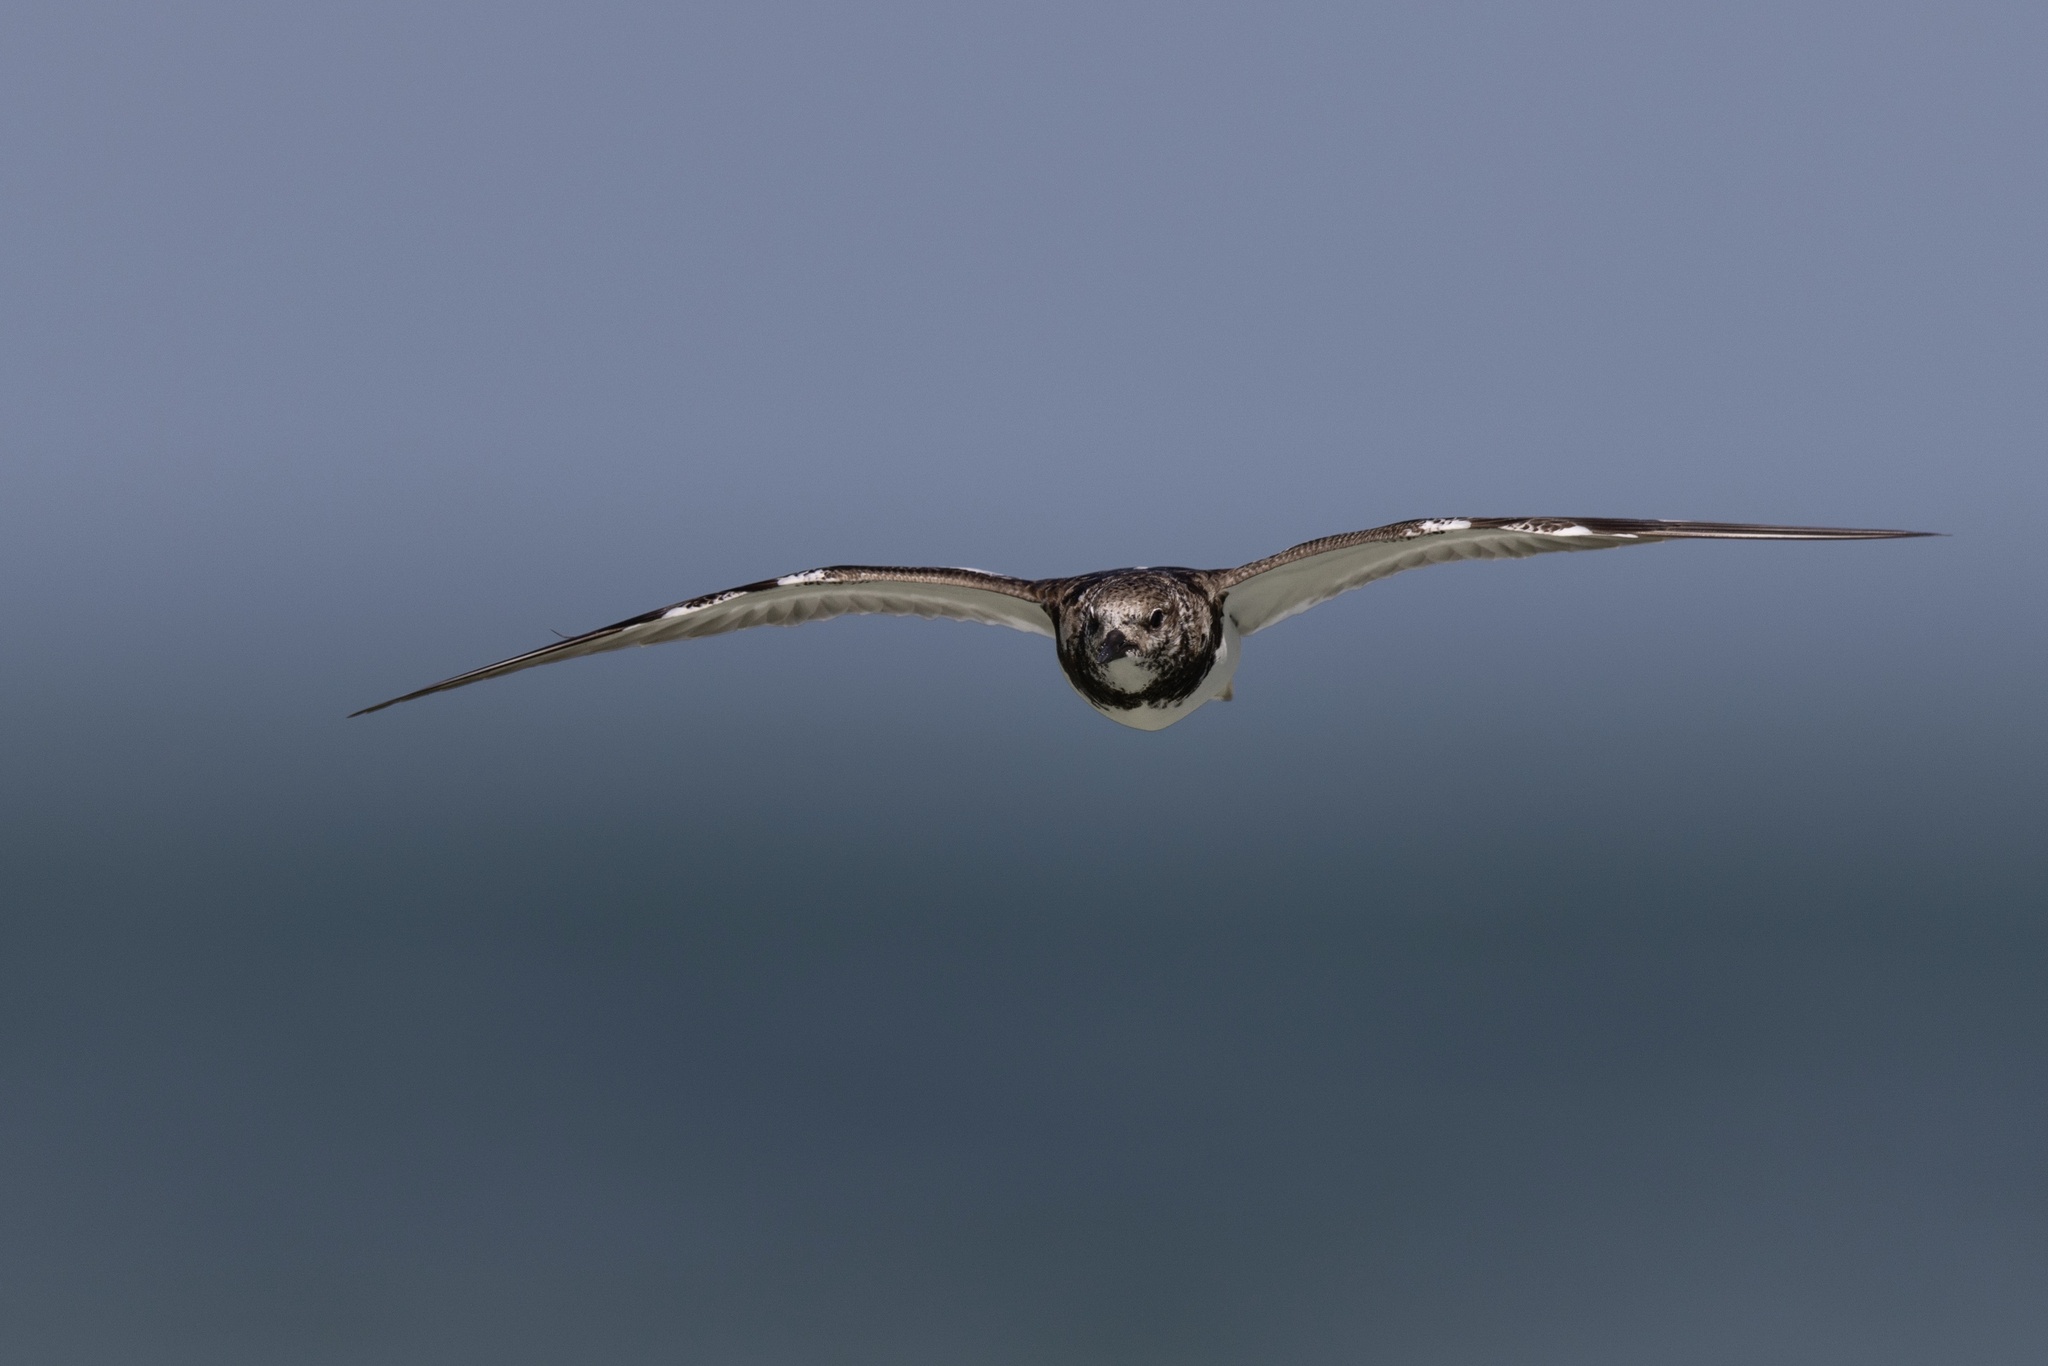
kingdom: Animalia
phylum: Chordata
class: Aves
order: Charadriiformes
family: Scolopacidae
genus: Arenaria
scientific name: Arenaria interpres
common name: Ruddy turnstone
